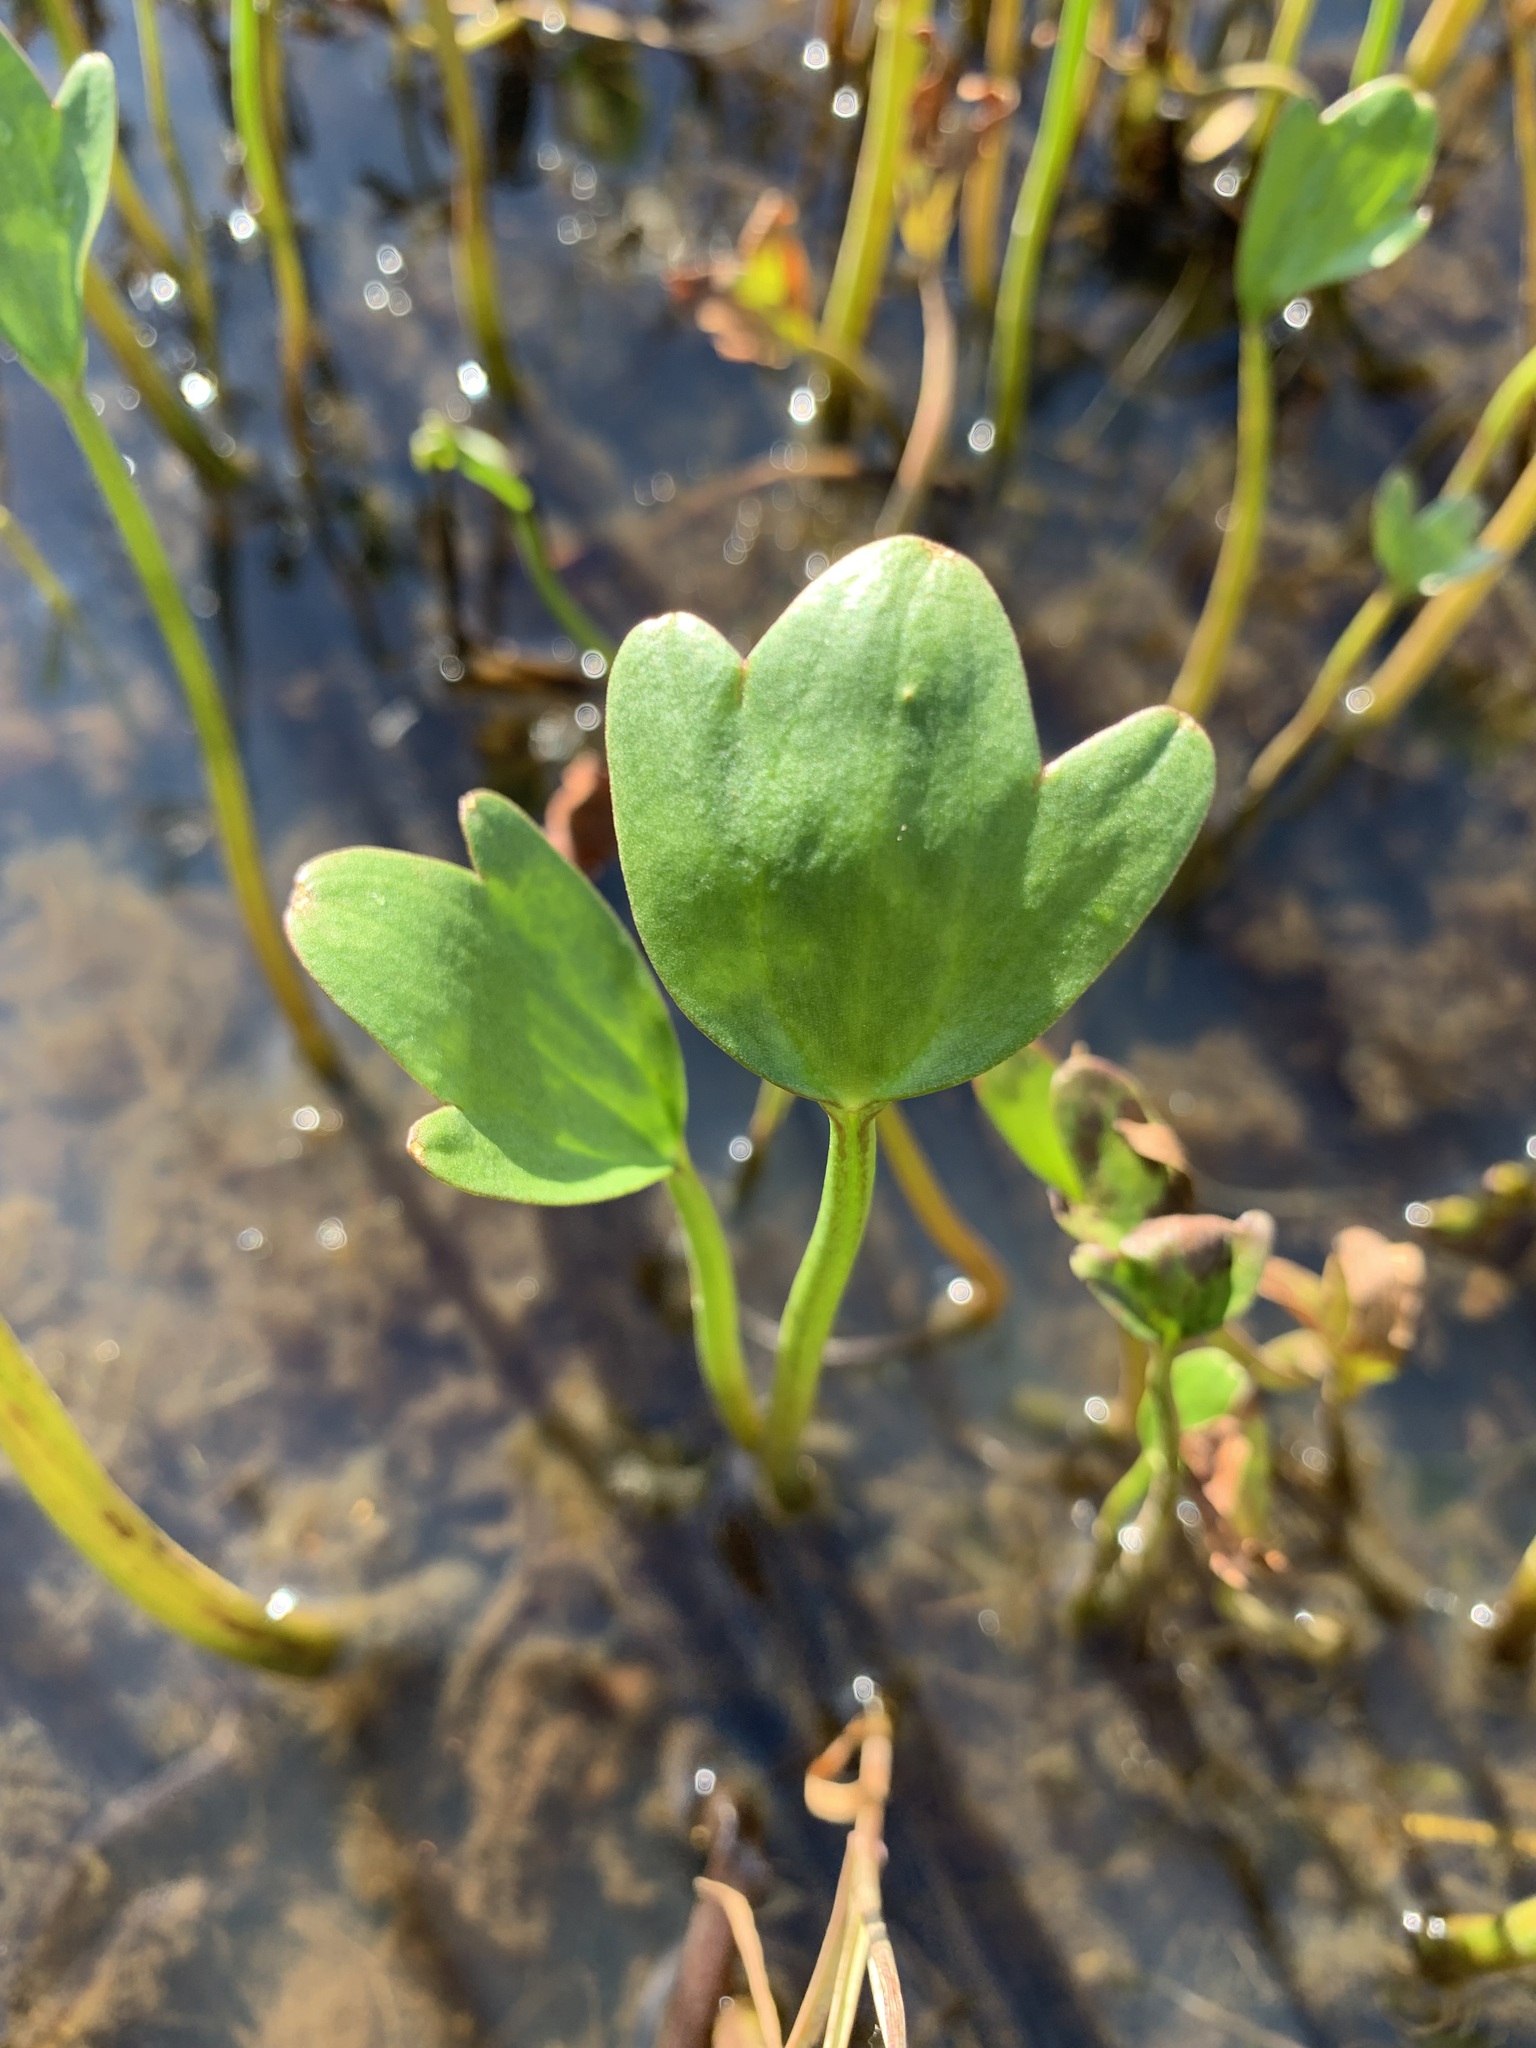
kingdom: Plantae
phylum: Tracheophyta
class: Magnoliopsida
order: Ranunculales
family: Ranunculaceae
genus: Coptidium
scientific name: Coptidium pallasii
